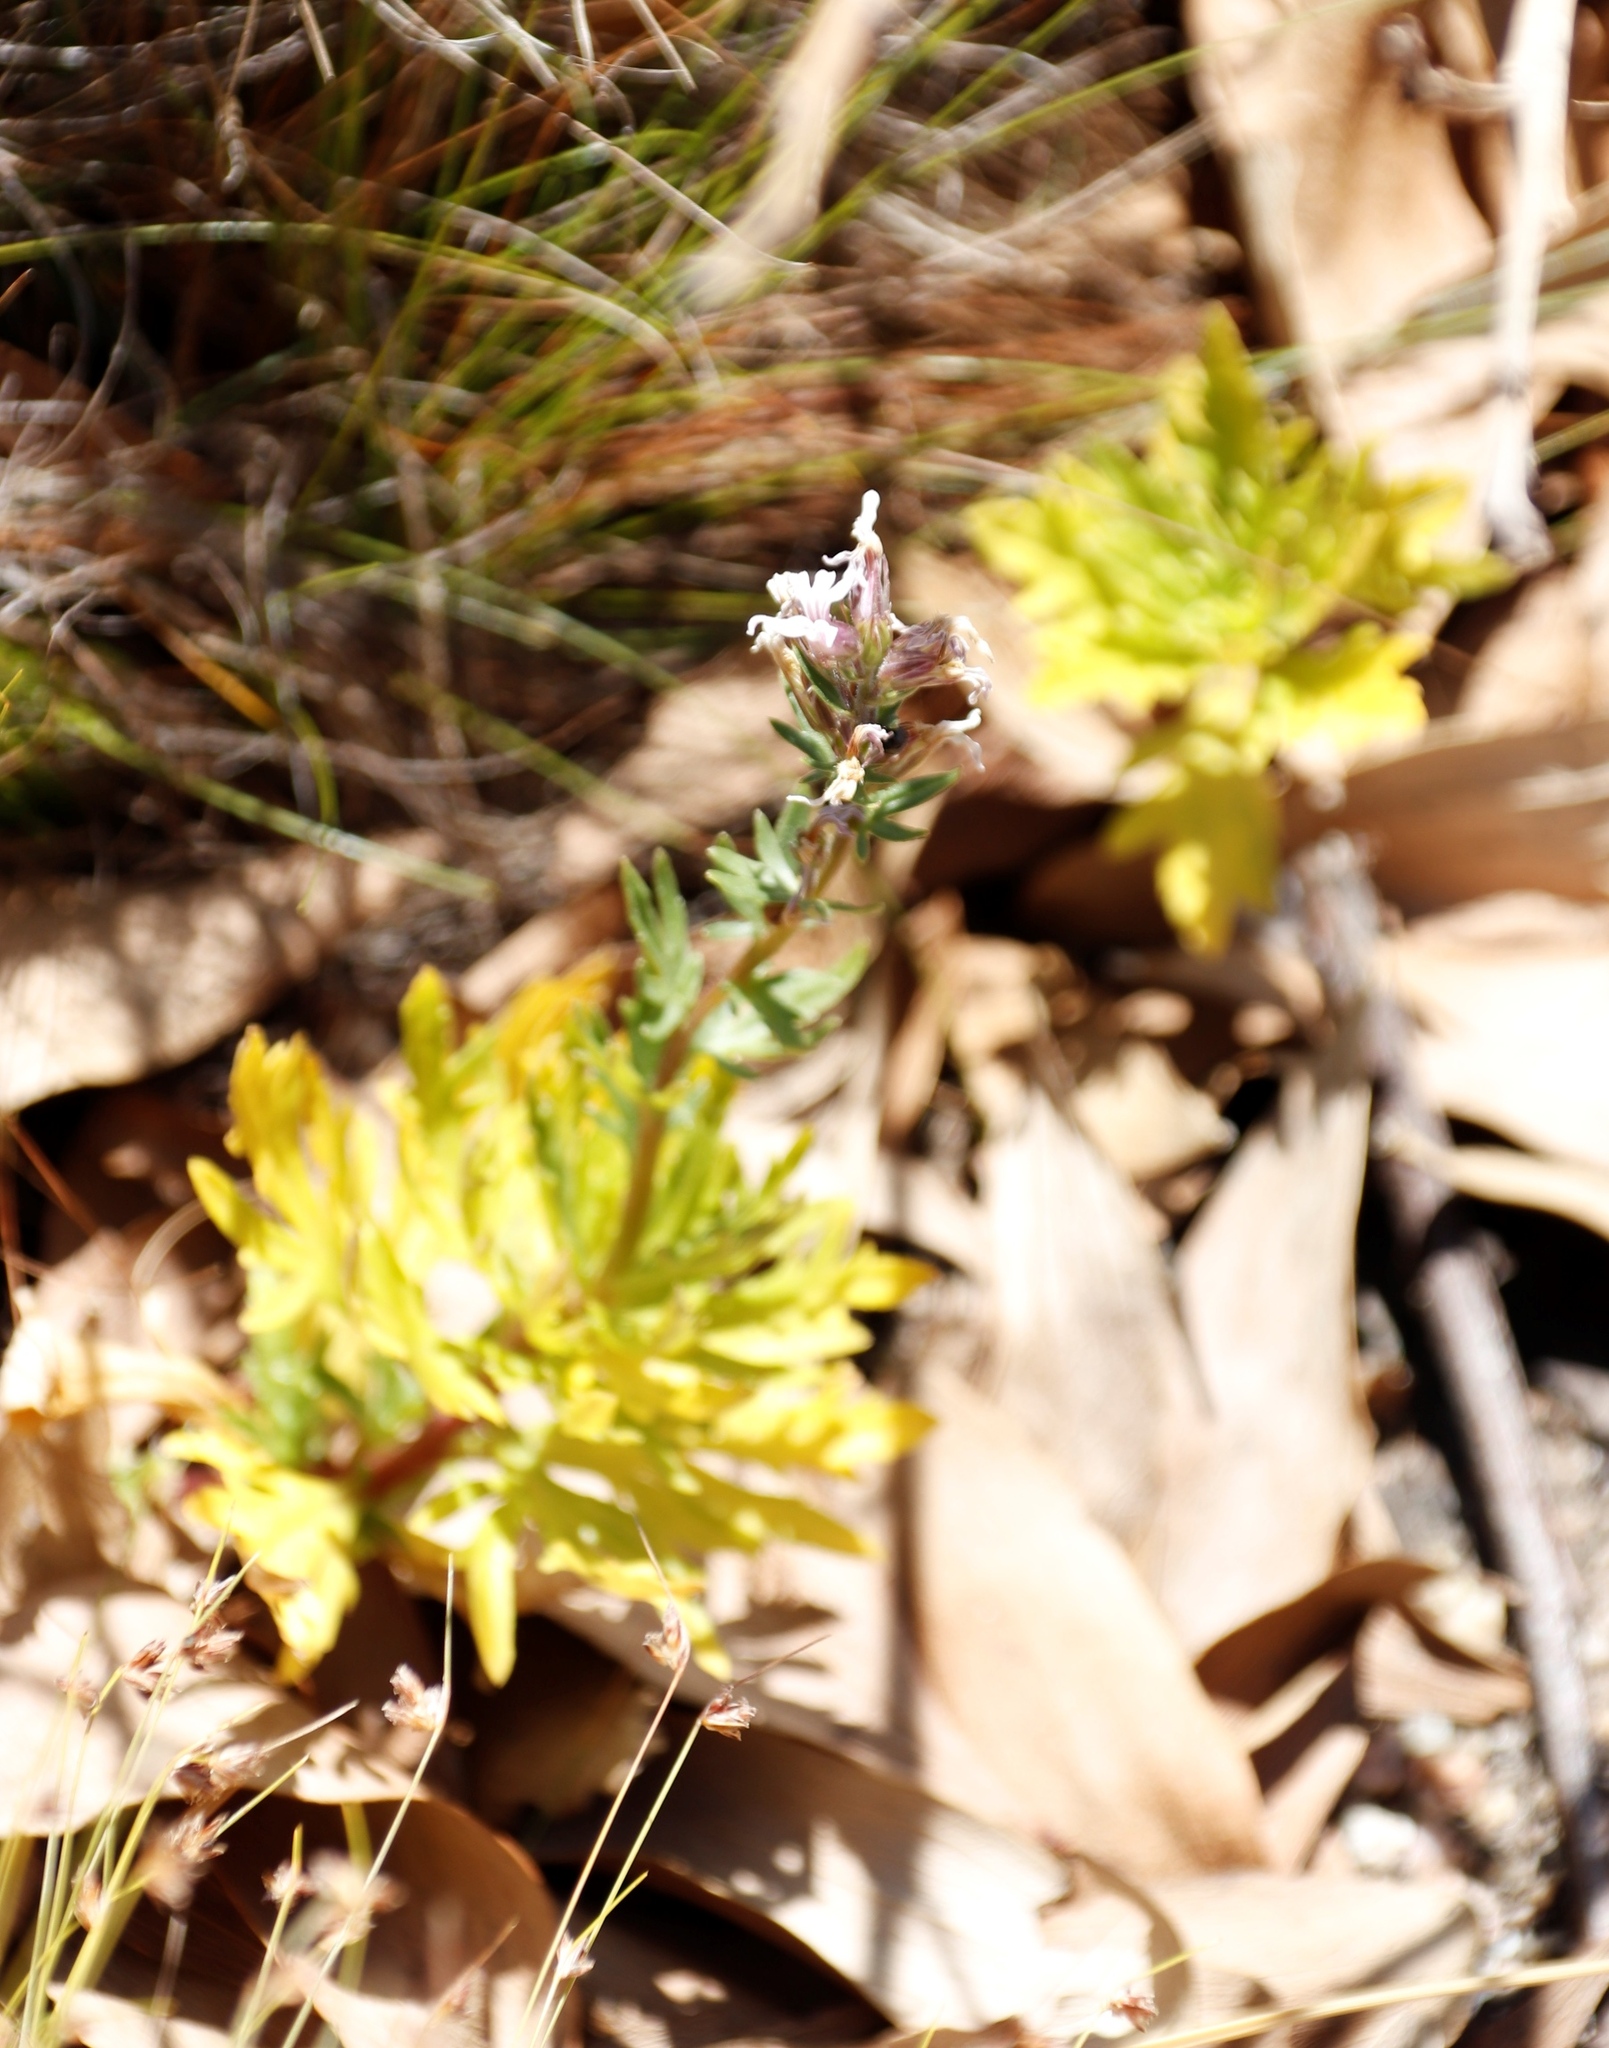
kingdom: Plantae
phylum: Tracheophyta
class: Magnoliopsida
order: Asterales
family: Campanulaceae
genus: Cyphia
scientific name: Cyphia bulbosa
